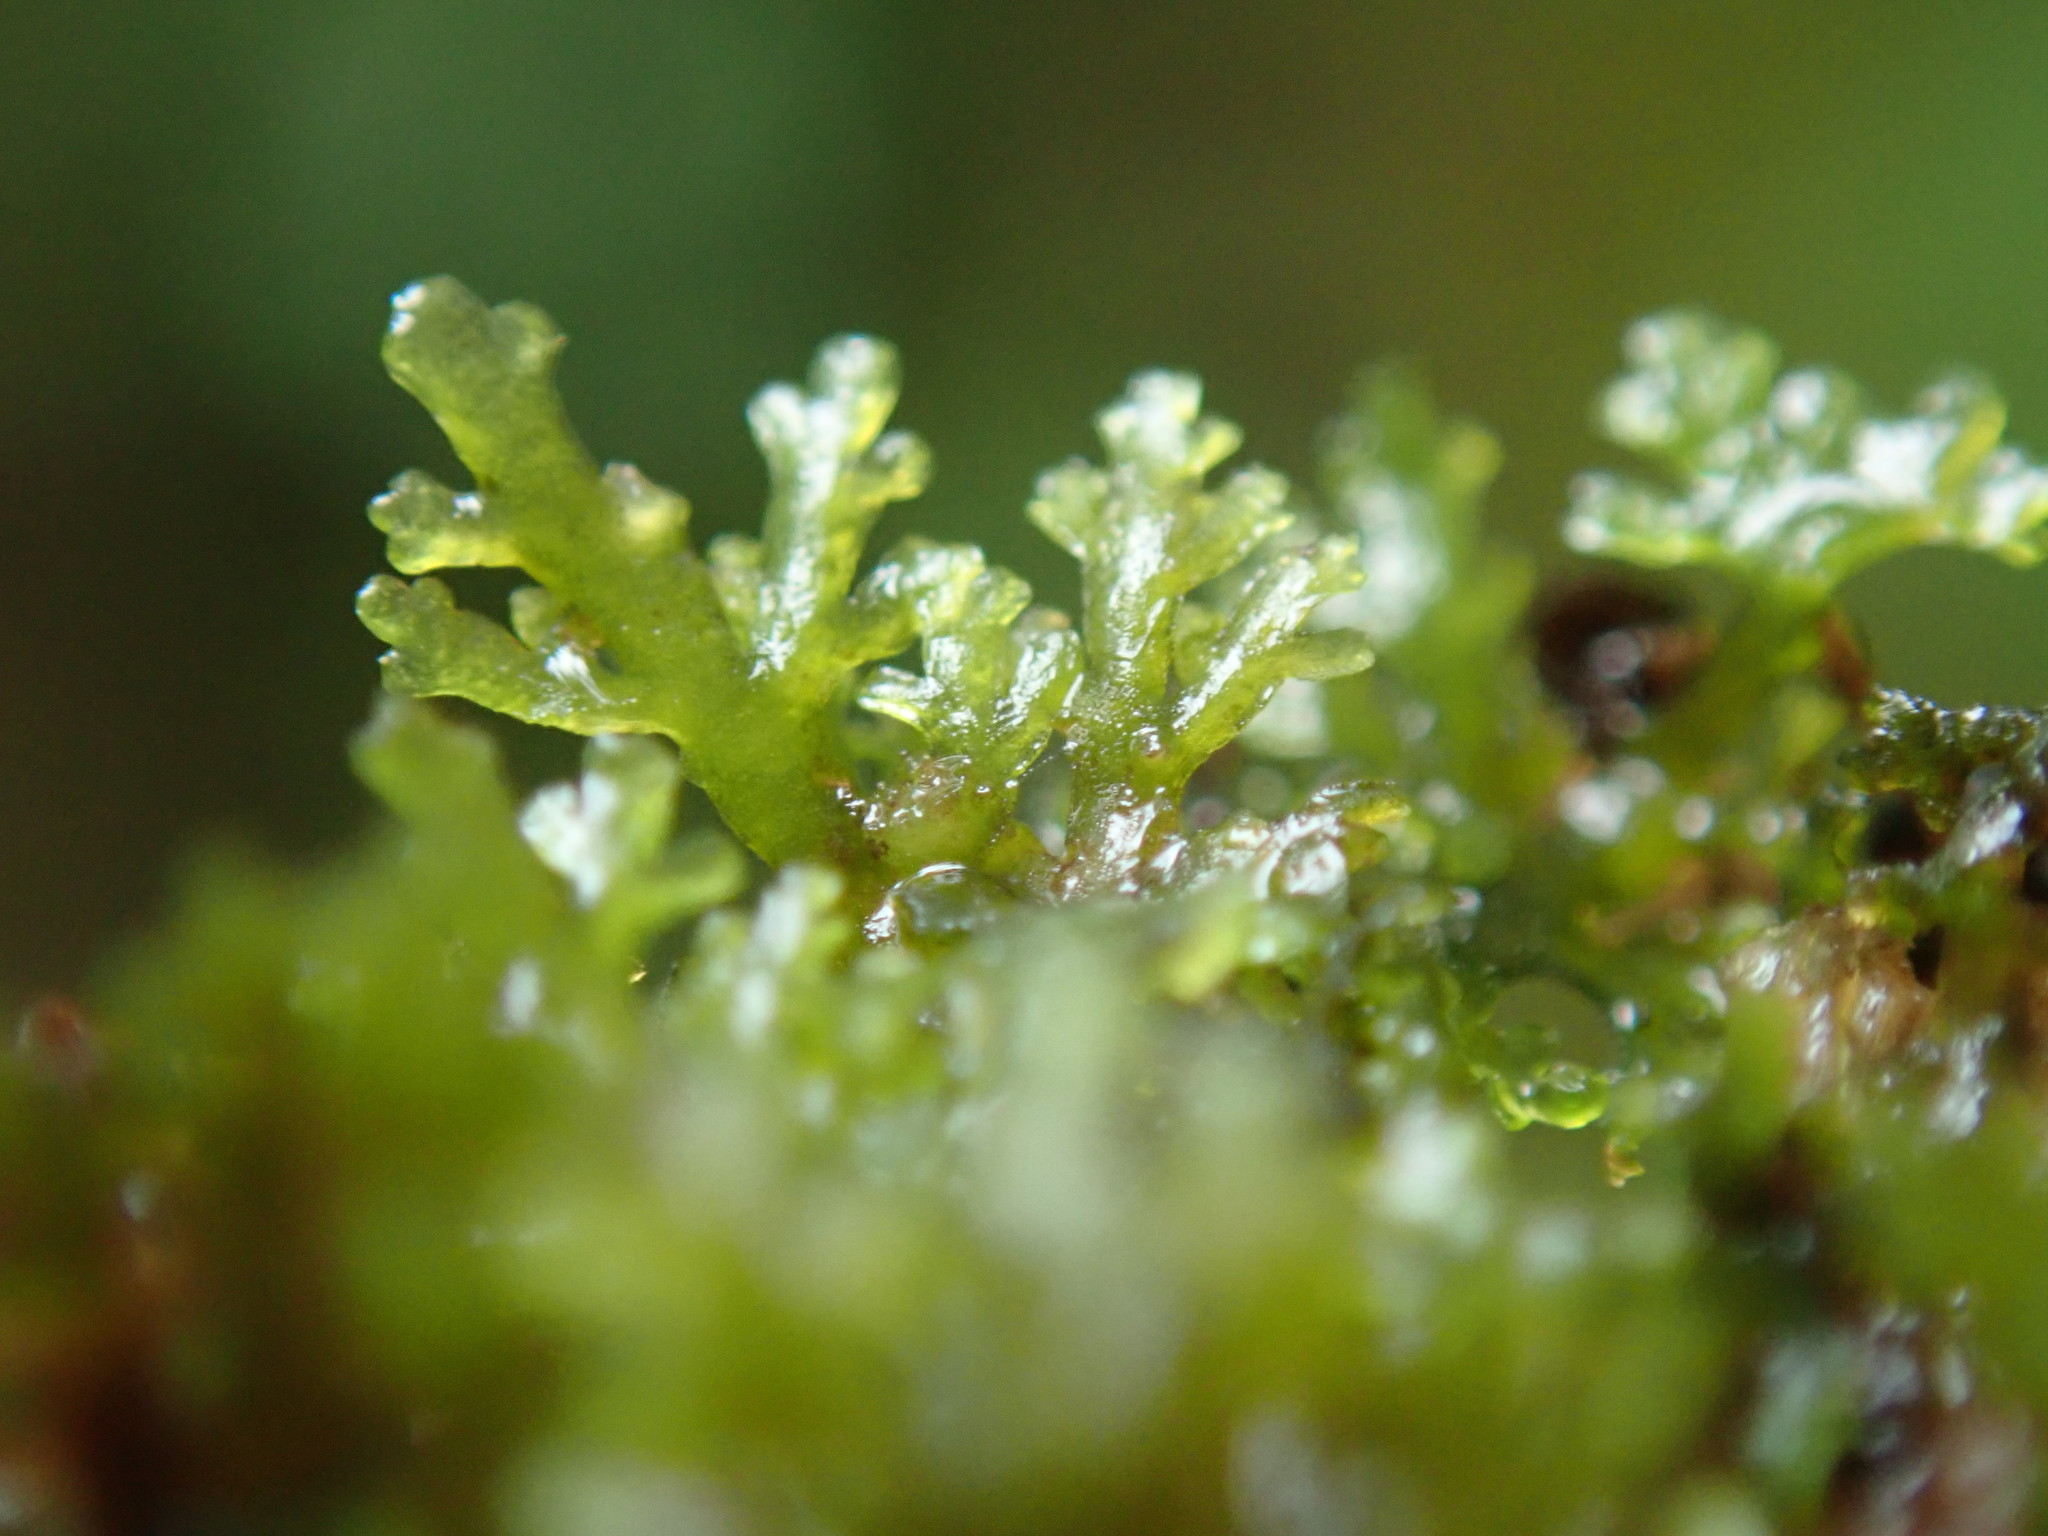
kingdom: Plantae
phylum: Marchantiophyta
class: Jungermanniopsida
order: Metzgeriales
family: Aneuraceae
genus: Riccardia
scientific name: Riccardia chamedryfolia
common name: Jagged germanderwort
